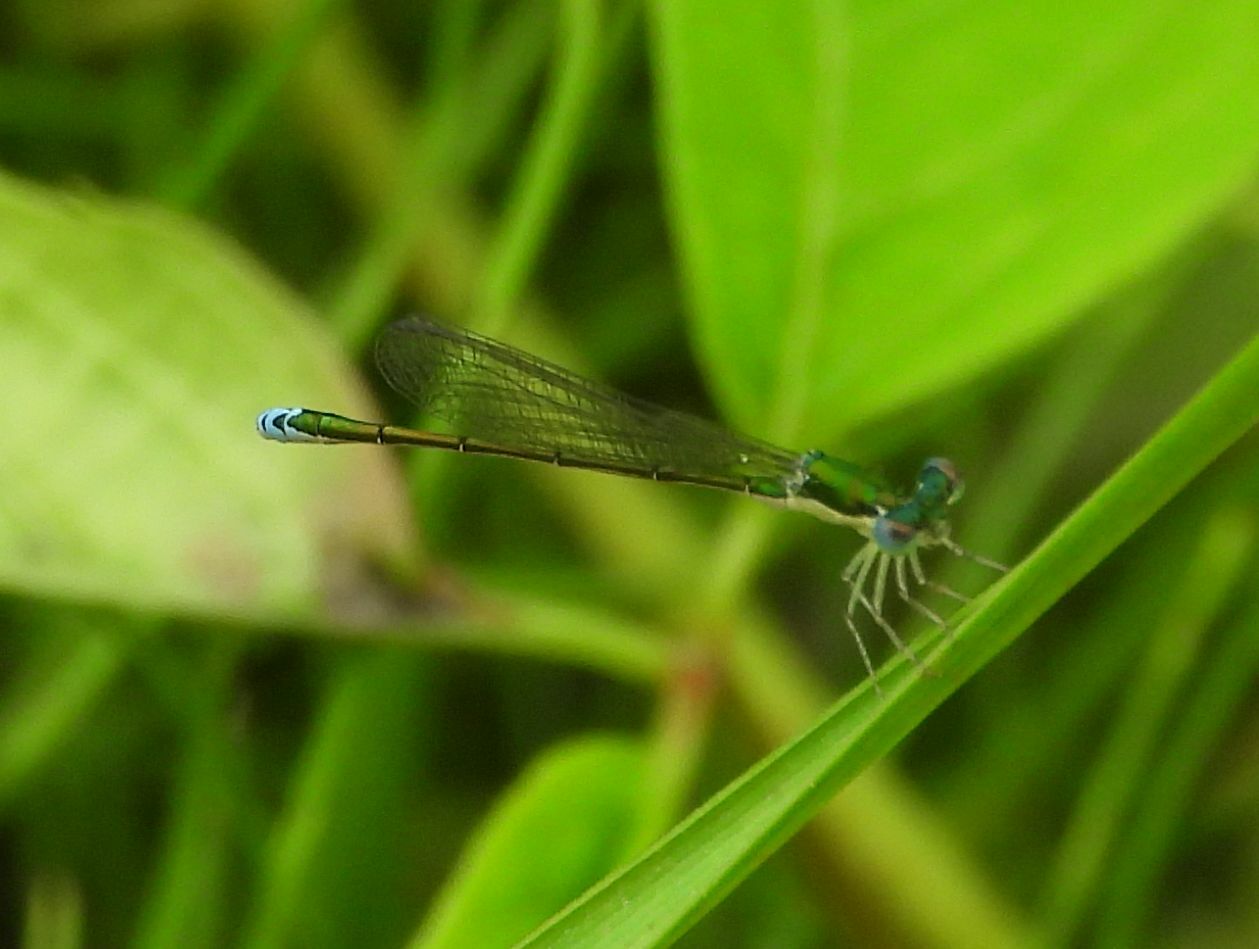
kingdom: Animalia
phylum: Arthropoda
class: Insecta
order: Odonata
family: Coenagrionidae
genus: Nehalennia
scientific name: Nehalennia irene
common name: Sedge sprite
